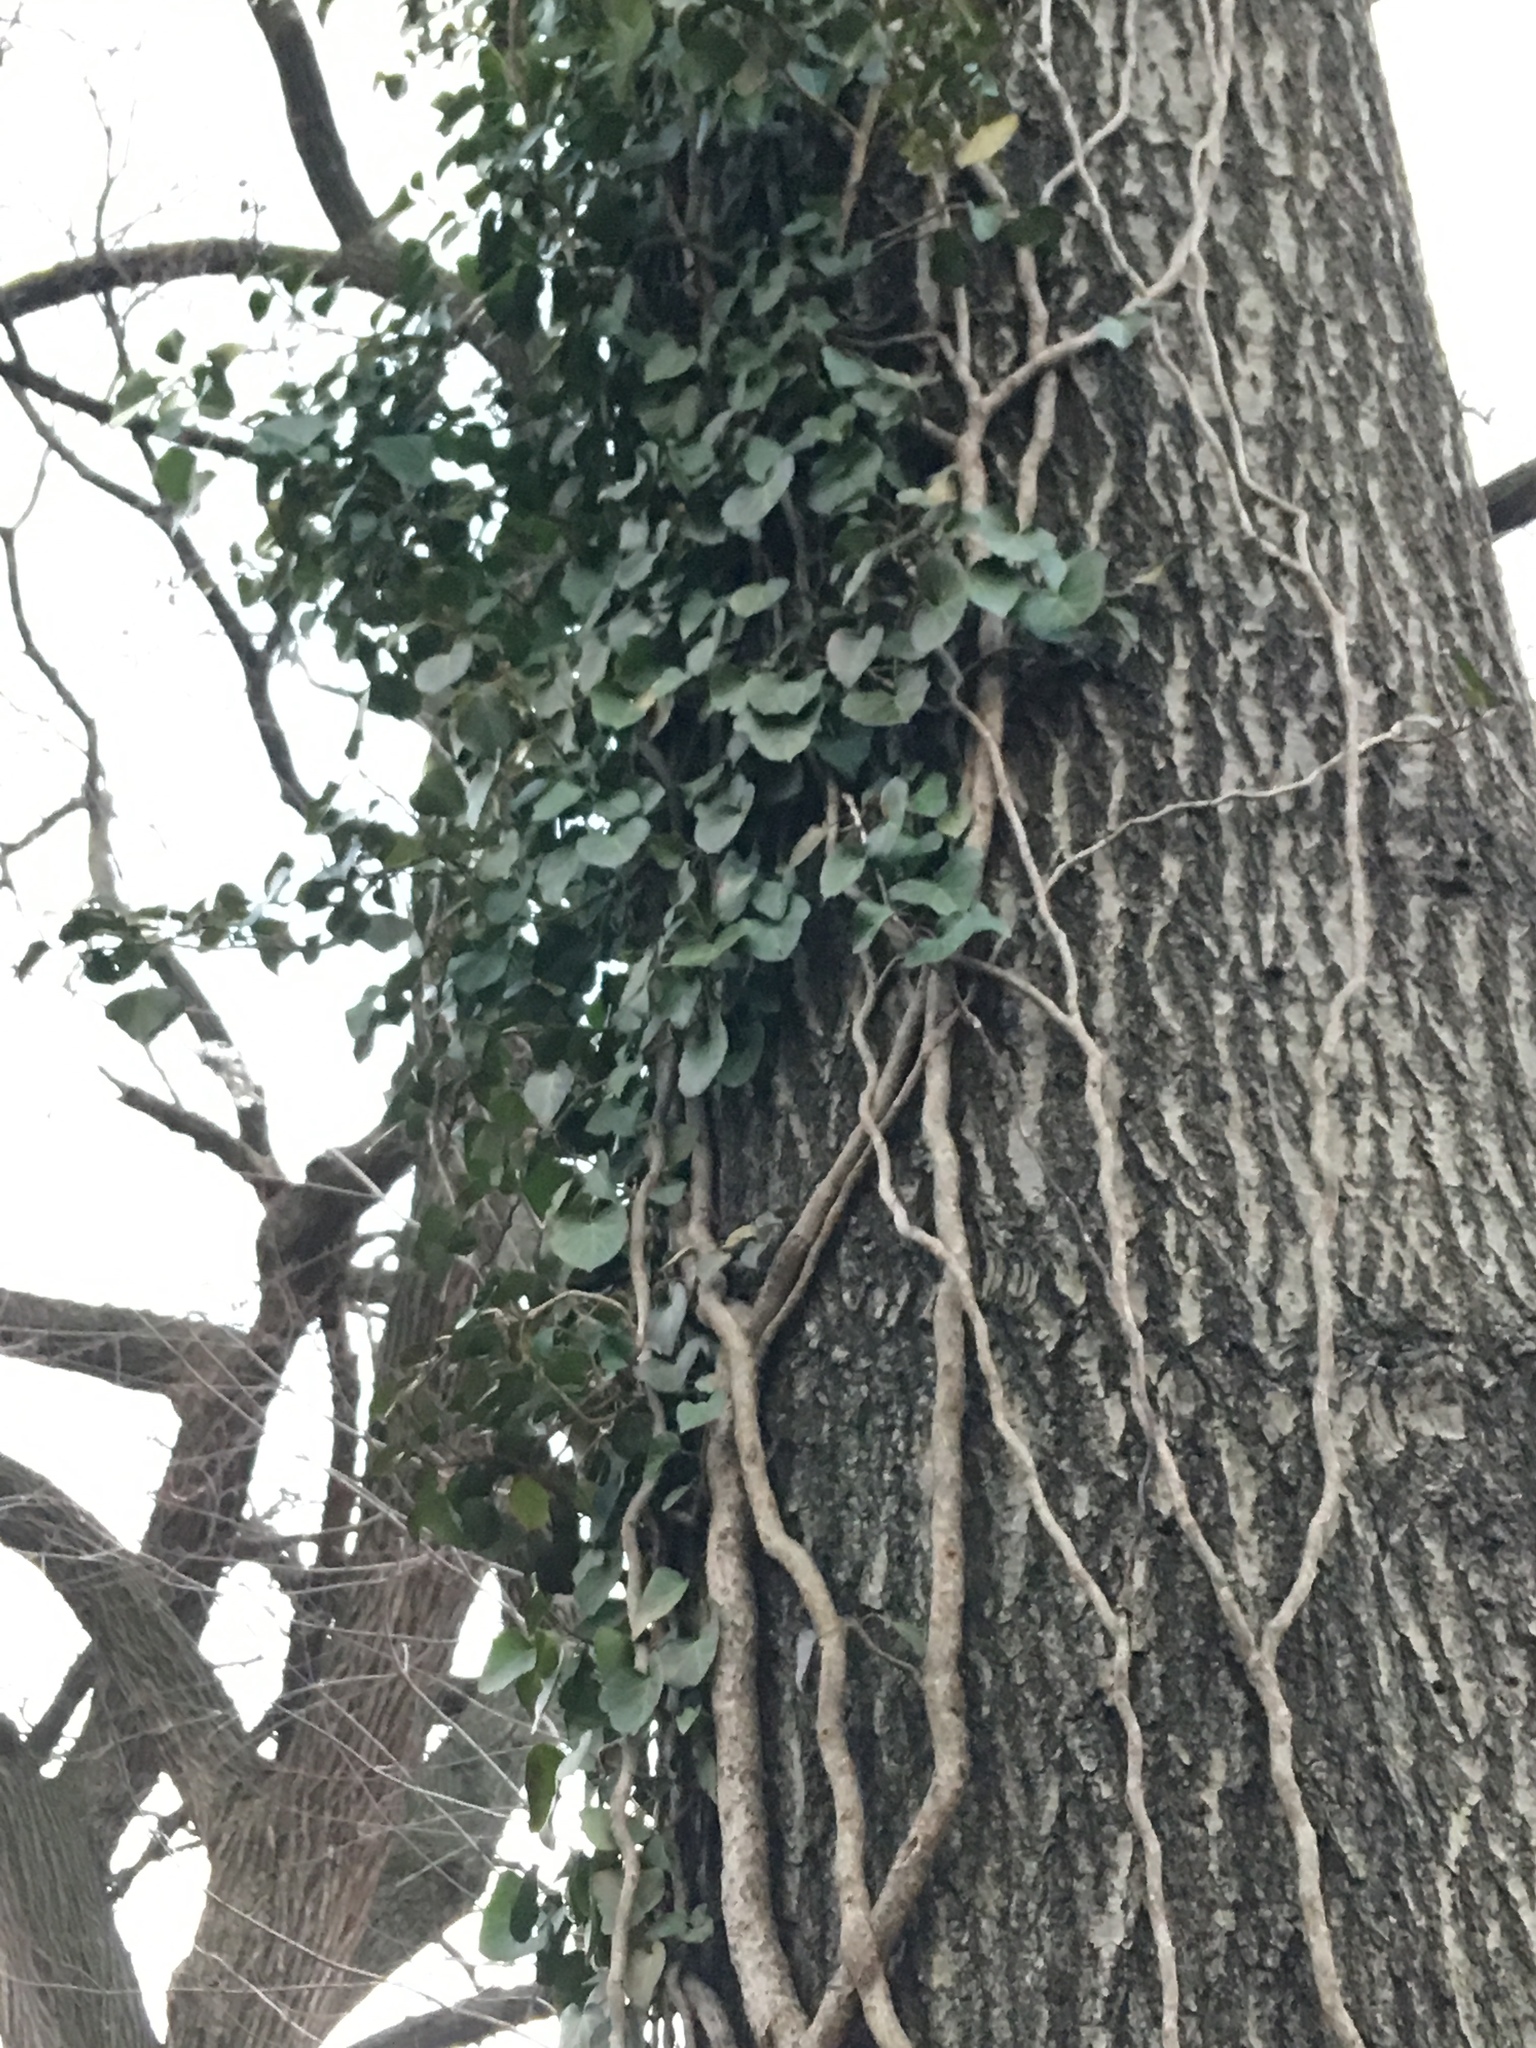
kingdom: Plantae
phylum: Tracheophyta
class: Magnoliopsida
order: Apiales
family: Araliaceae
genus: Hedera
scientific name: Hedera helix
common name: Ivy
